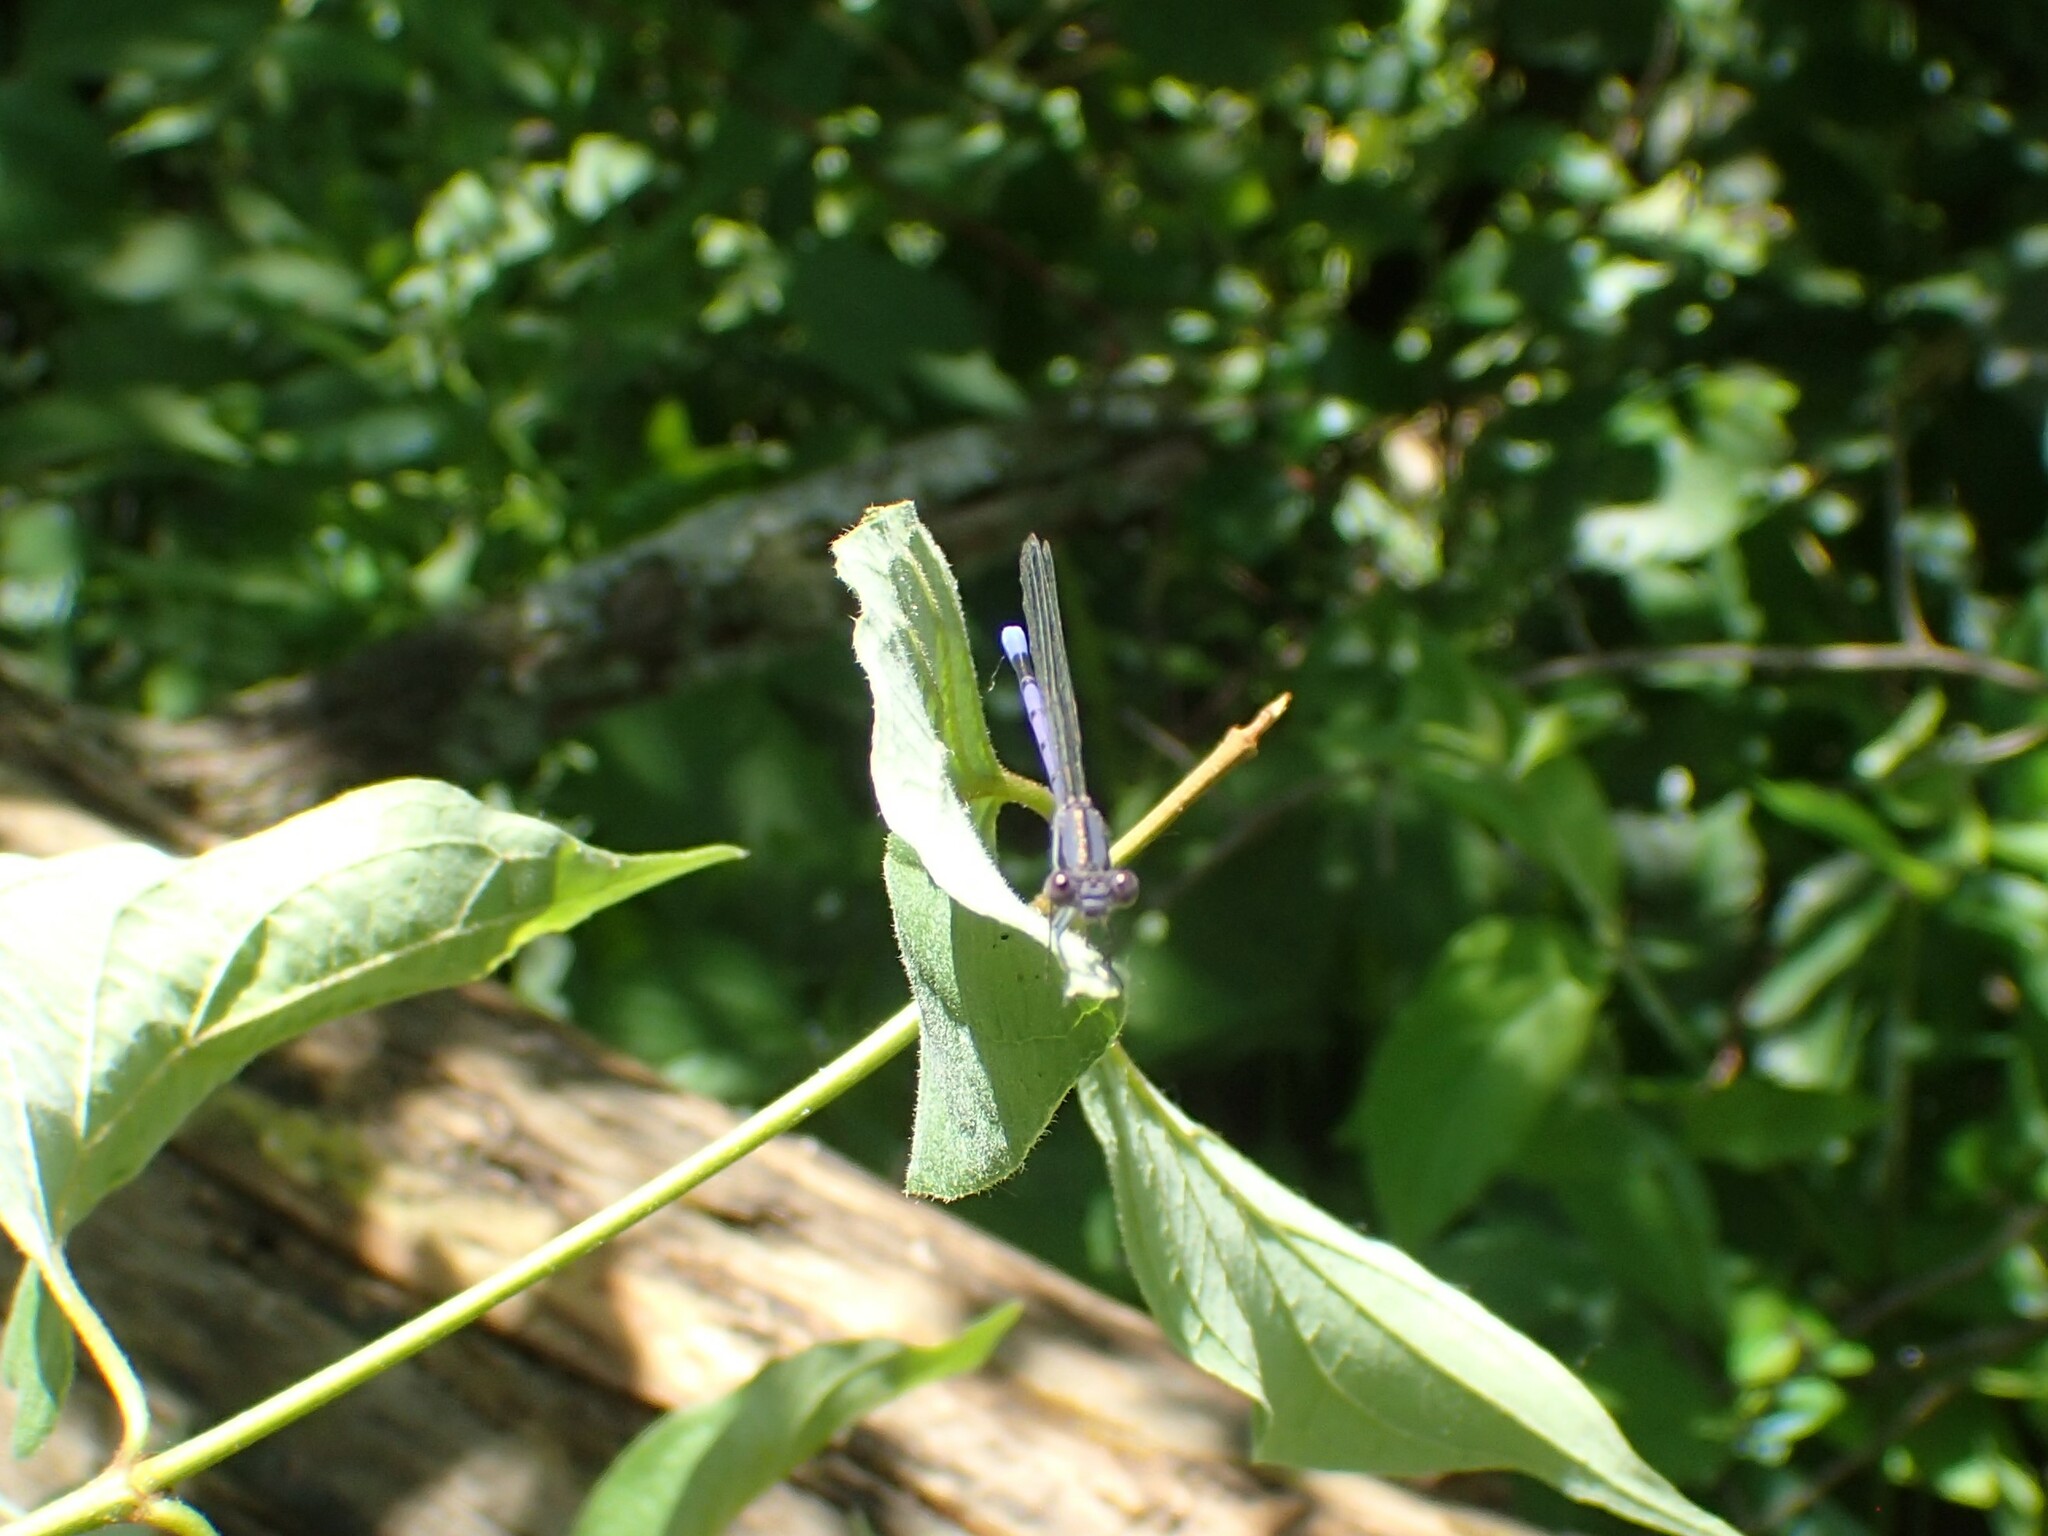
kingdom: Animalia
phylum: Arthropoda
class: Insecta
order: Odonata
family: Coenagrionidae
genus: Argia
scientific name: Argia fumipennis
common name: Variable dancer
